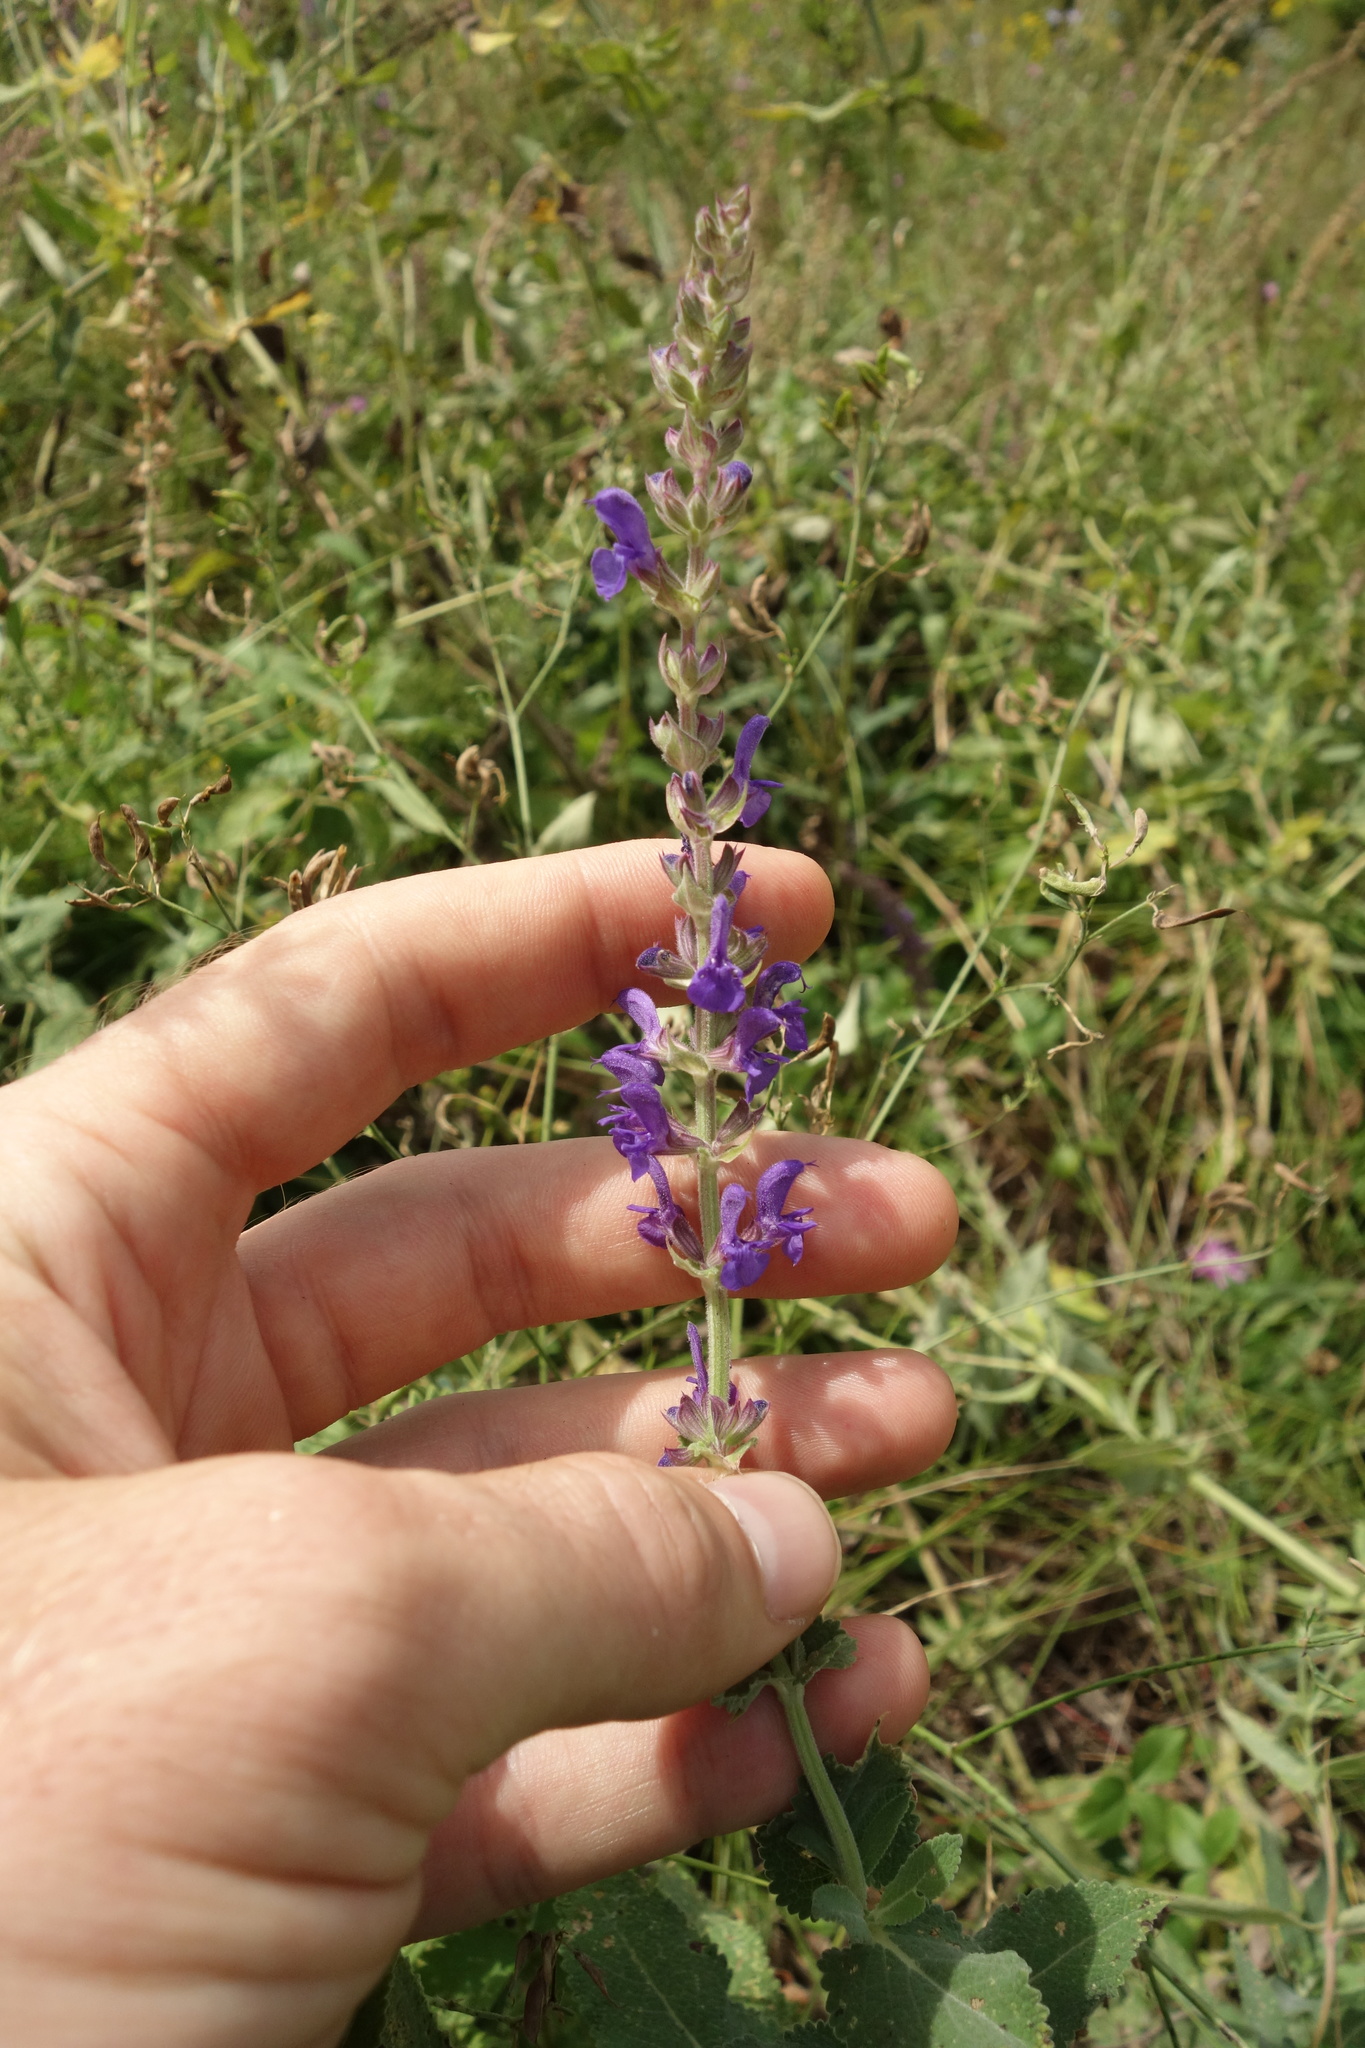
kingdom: Plantae
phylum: Tracheophyta
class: Magnoliopsida
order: Lamiales
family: Lamiaceae
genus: Salvia
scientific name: Salvia nemorosa
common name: Balkan clary
